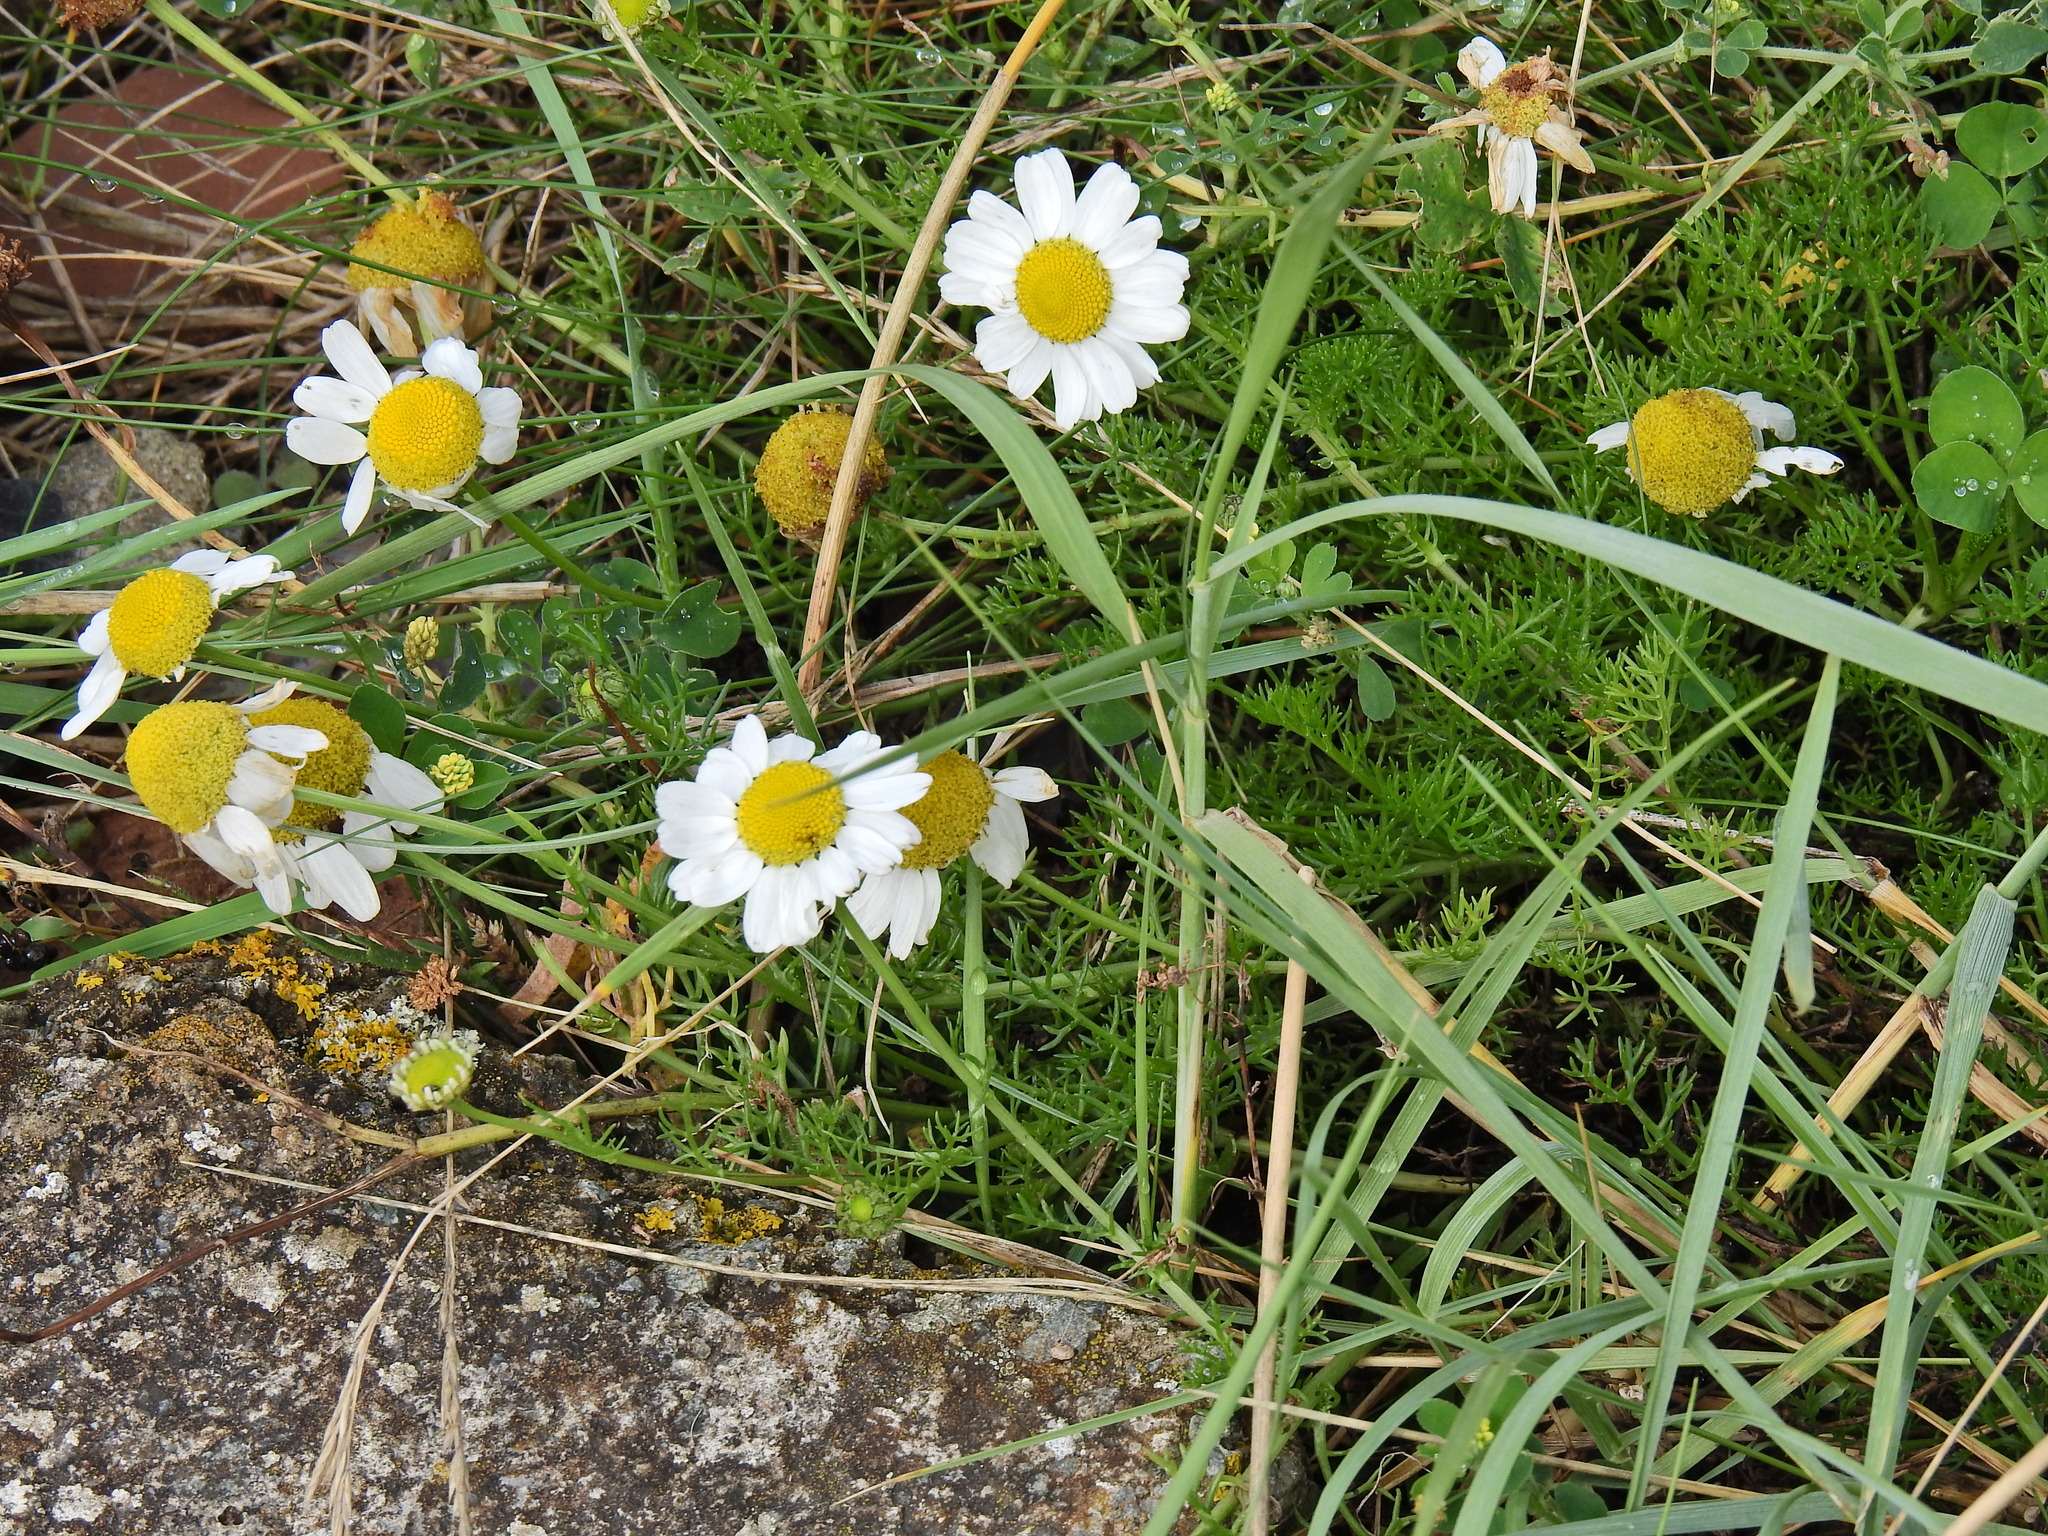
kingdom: Plantae
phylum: Tracheophyta
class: Magnoliopsida
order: Asterales
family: Asteraceae
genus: Tripleurospermum
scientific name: Tripleurospermum maritimum
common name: Sea mayweed
